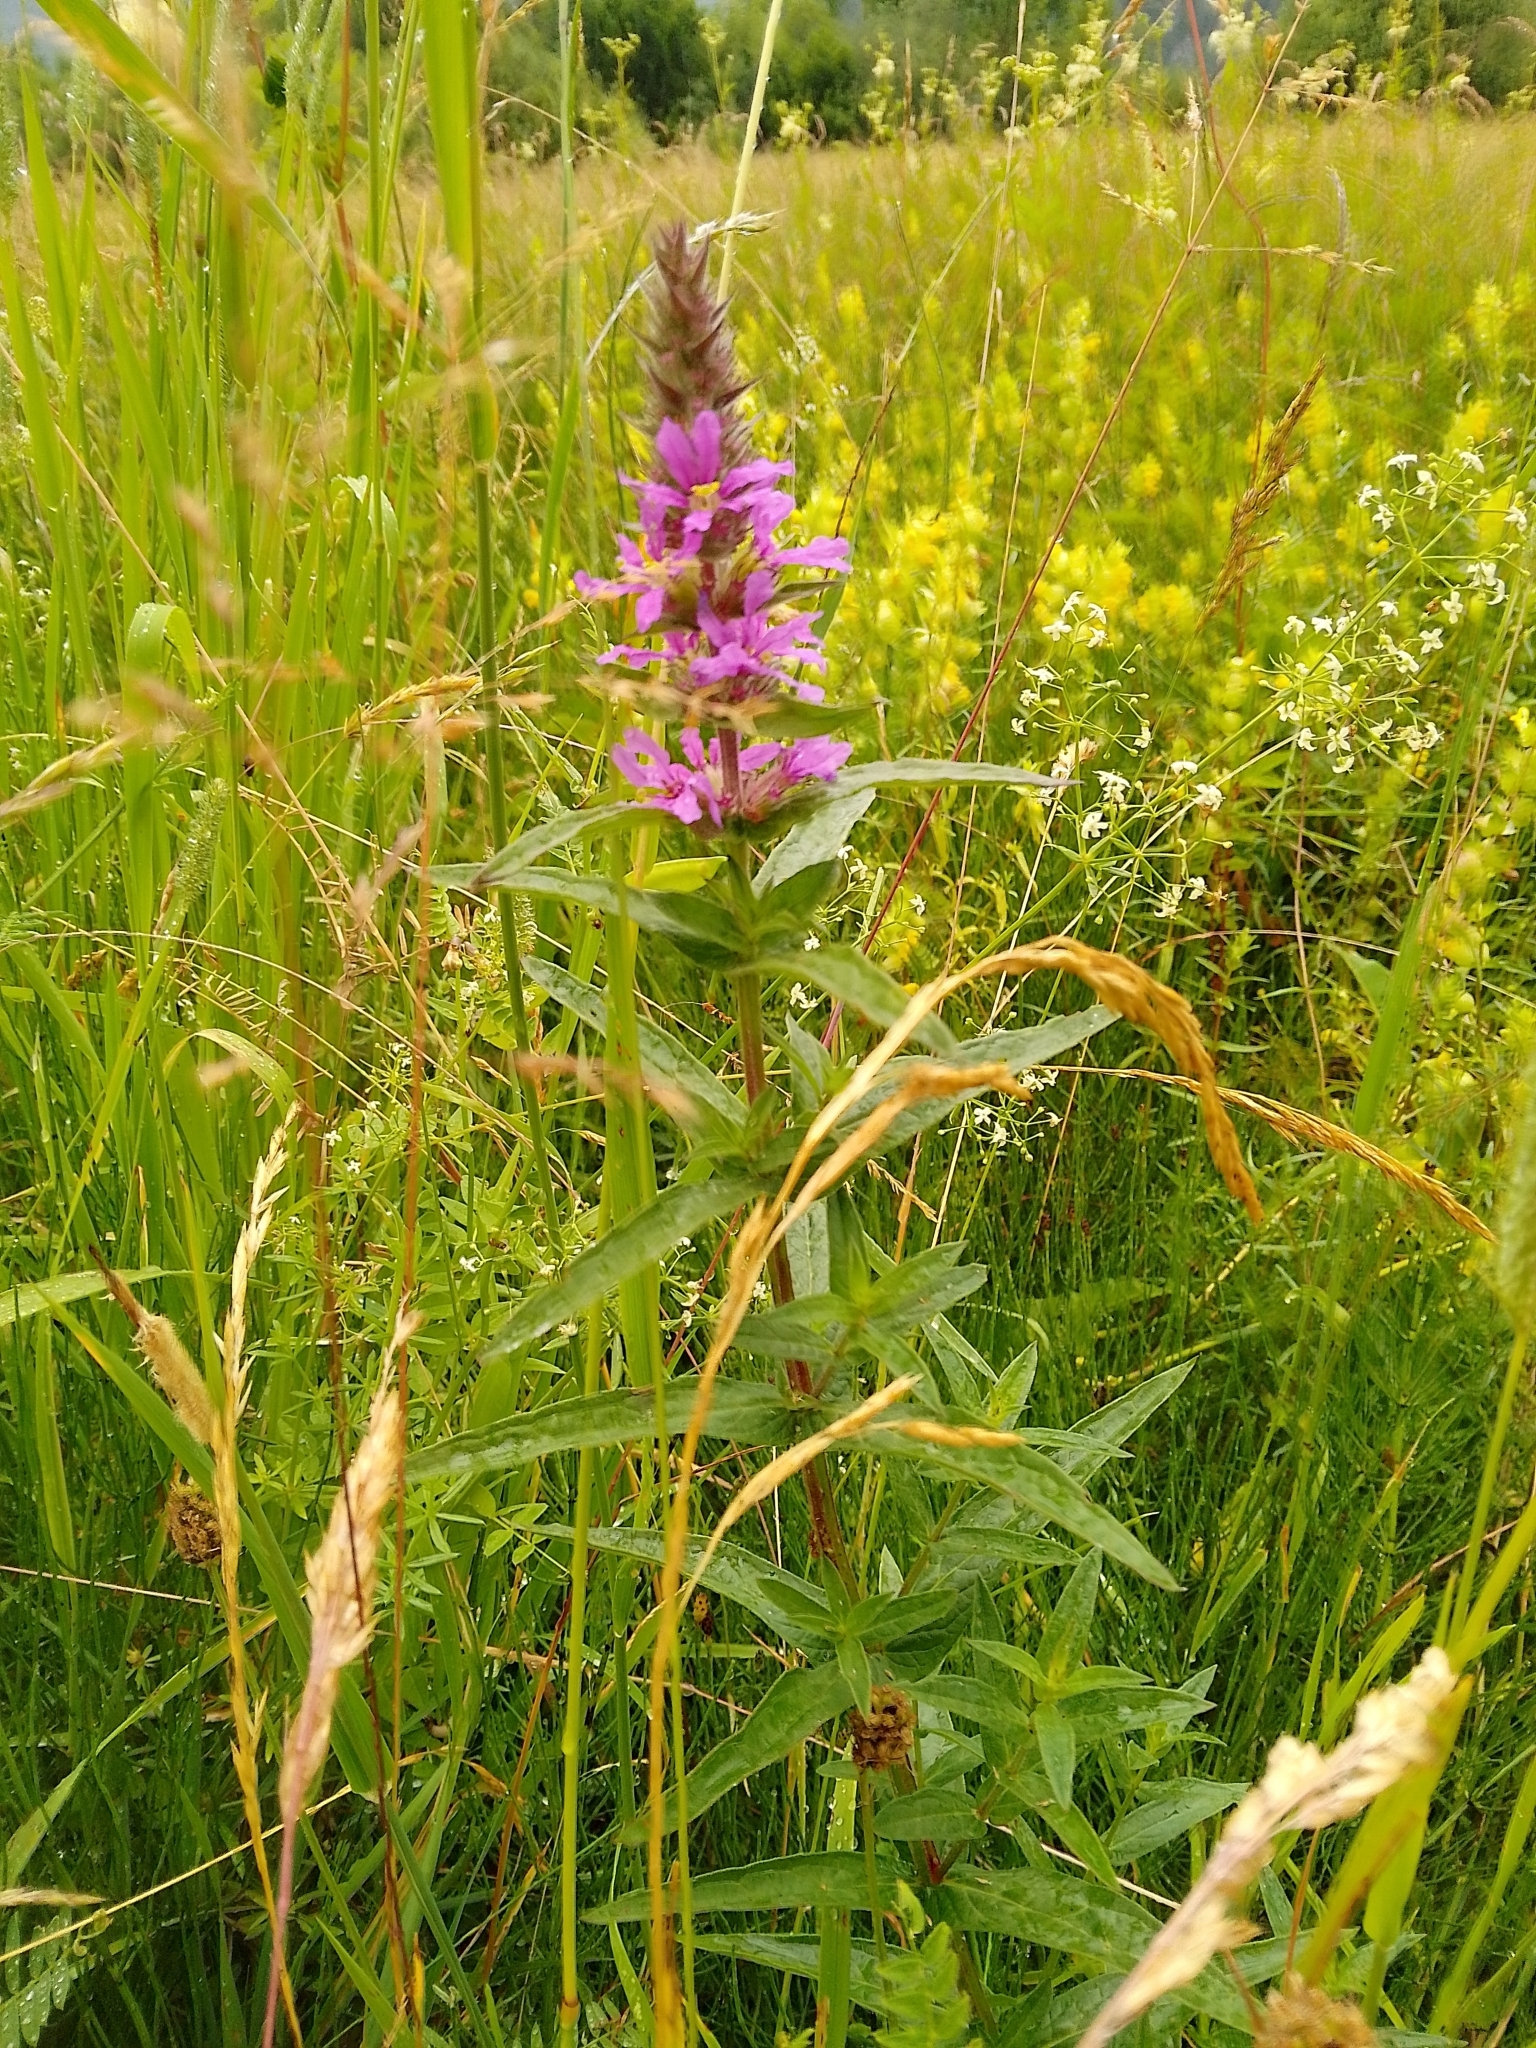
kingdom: Plantae
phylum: Tracheophyta
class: Magnoliopsida
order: Myrtales
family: Lythraceae
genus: Lythrum
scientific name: Lythrum salicaria
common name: Purple loosestrife
